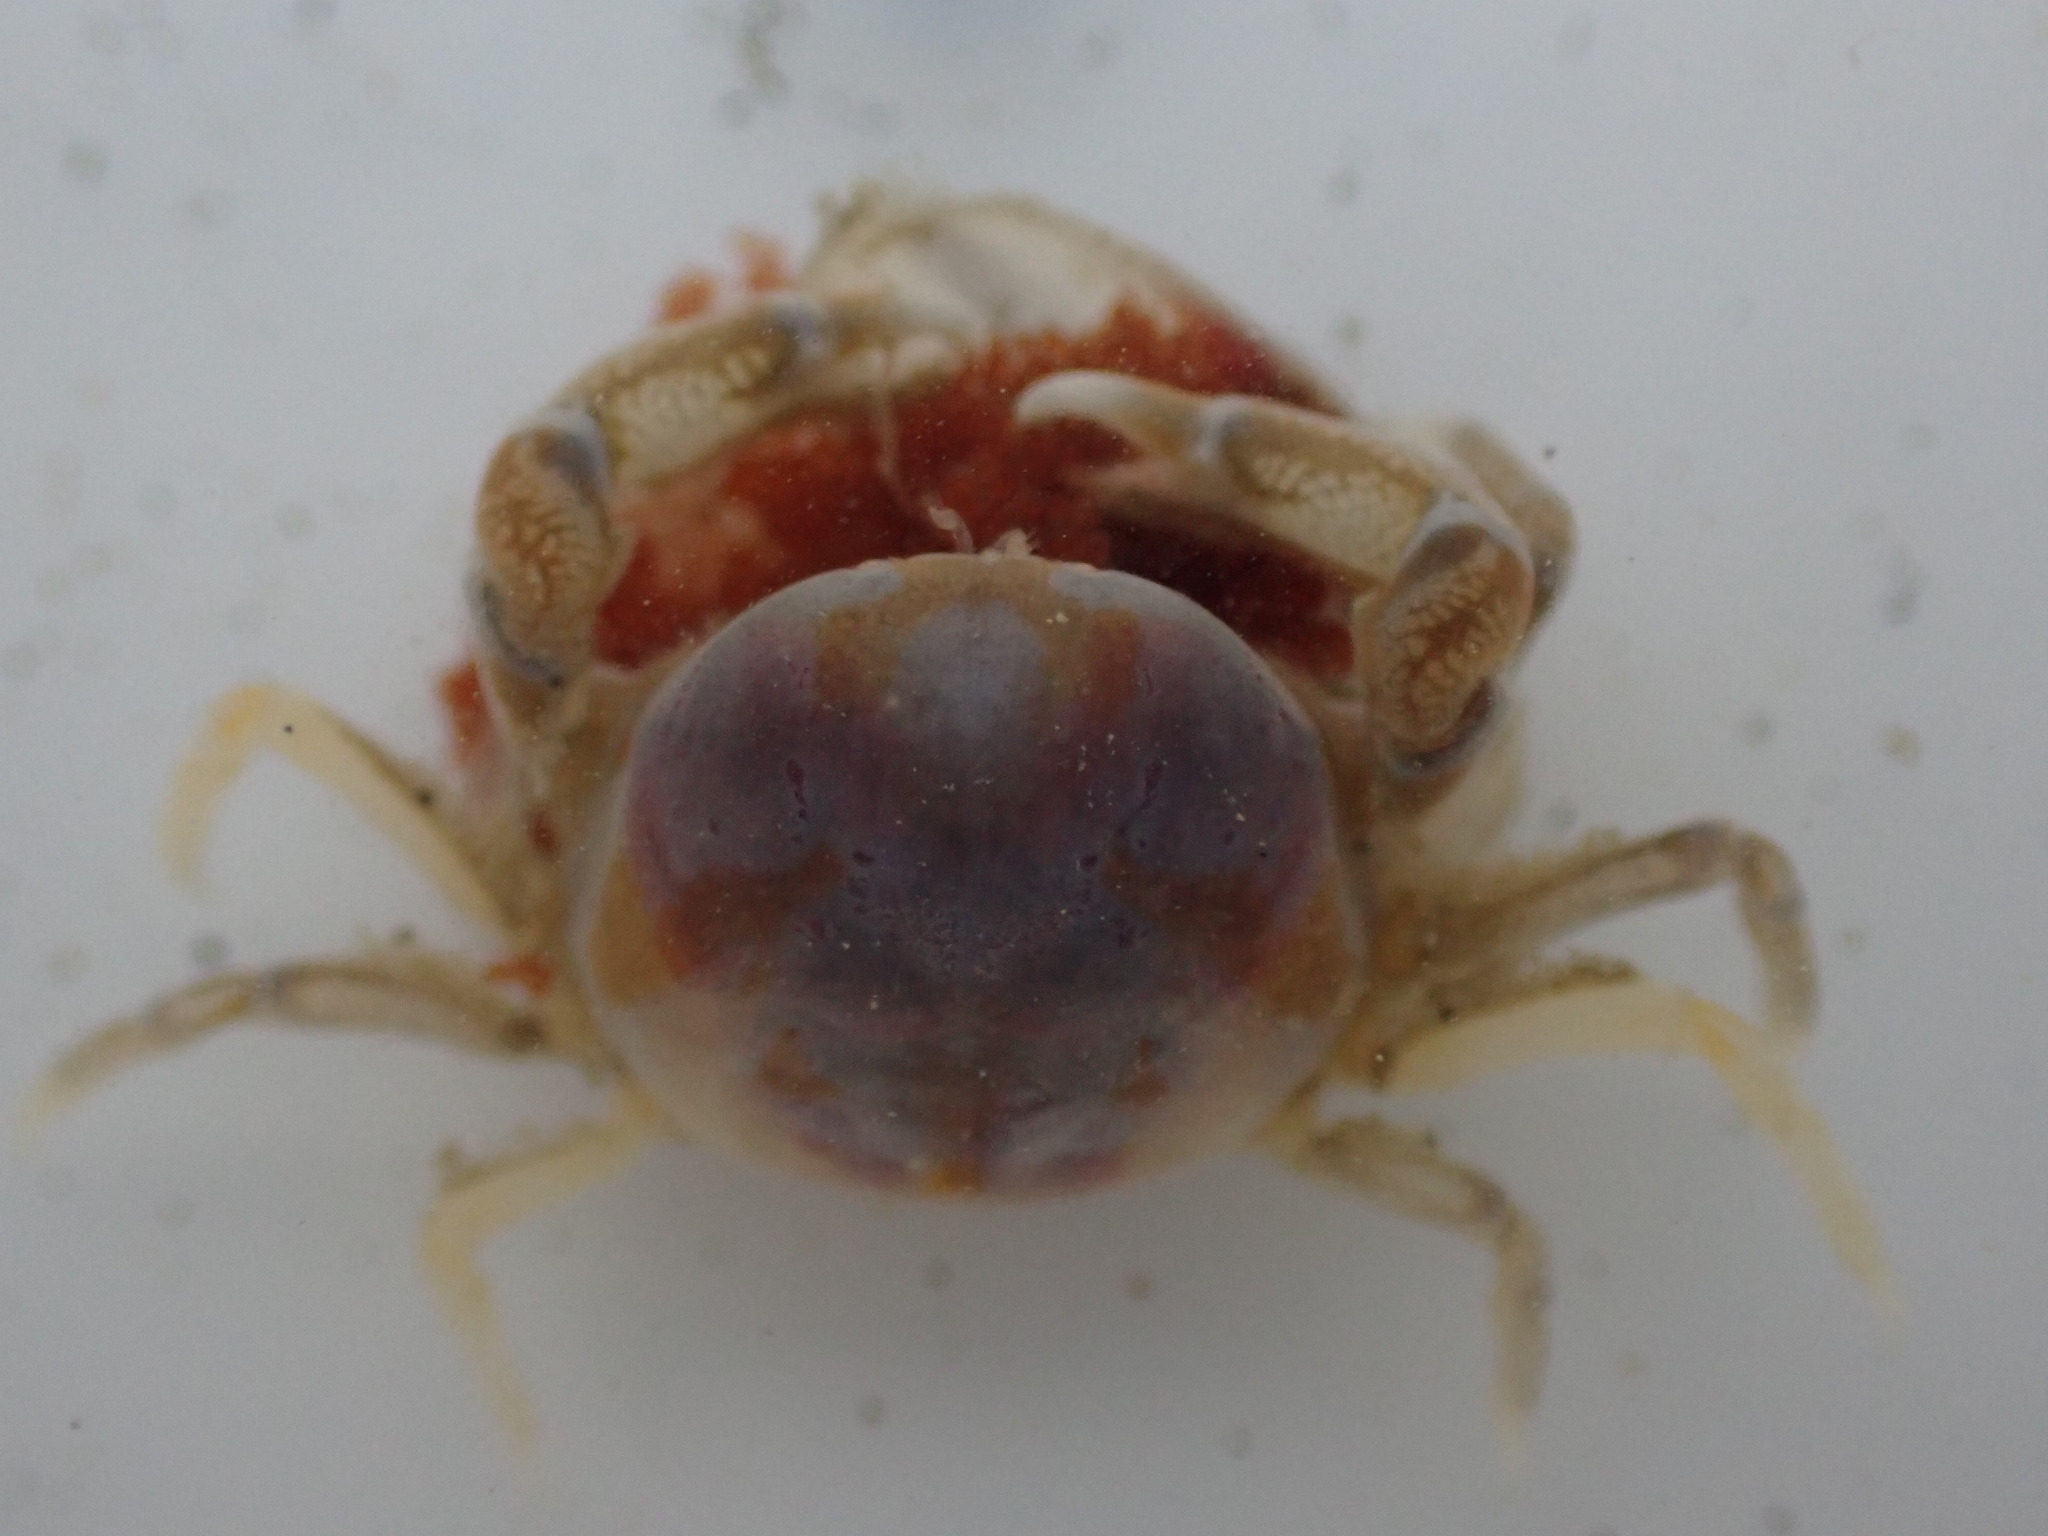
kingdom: Animalia
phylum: Arthropoda
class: Malacostraca
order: Decapoda
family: Pinnotheridae
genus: Nepinnotheres
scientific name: Nepinnotheres novaezelandiae
